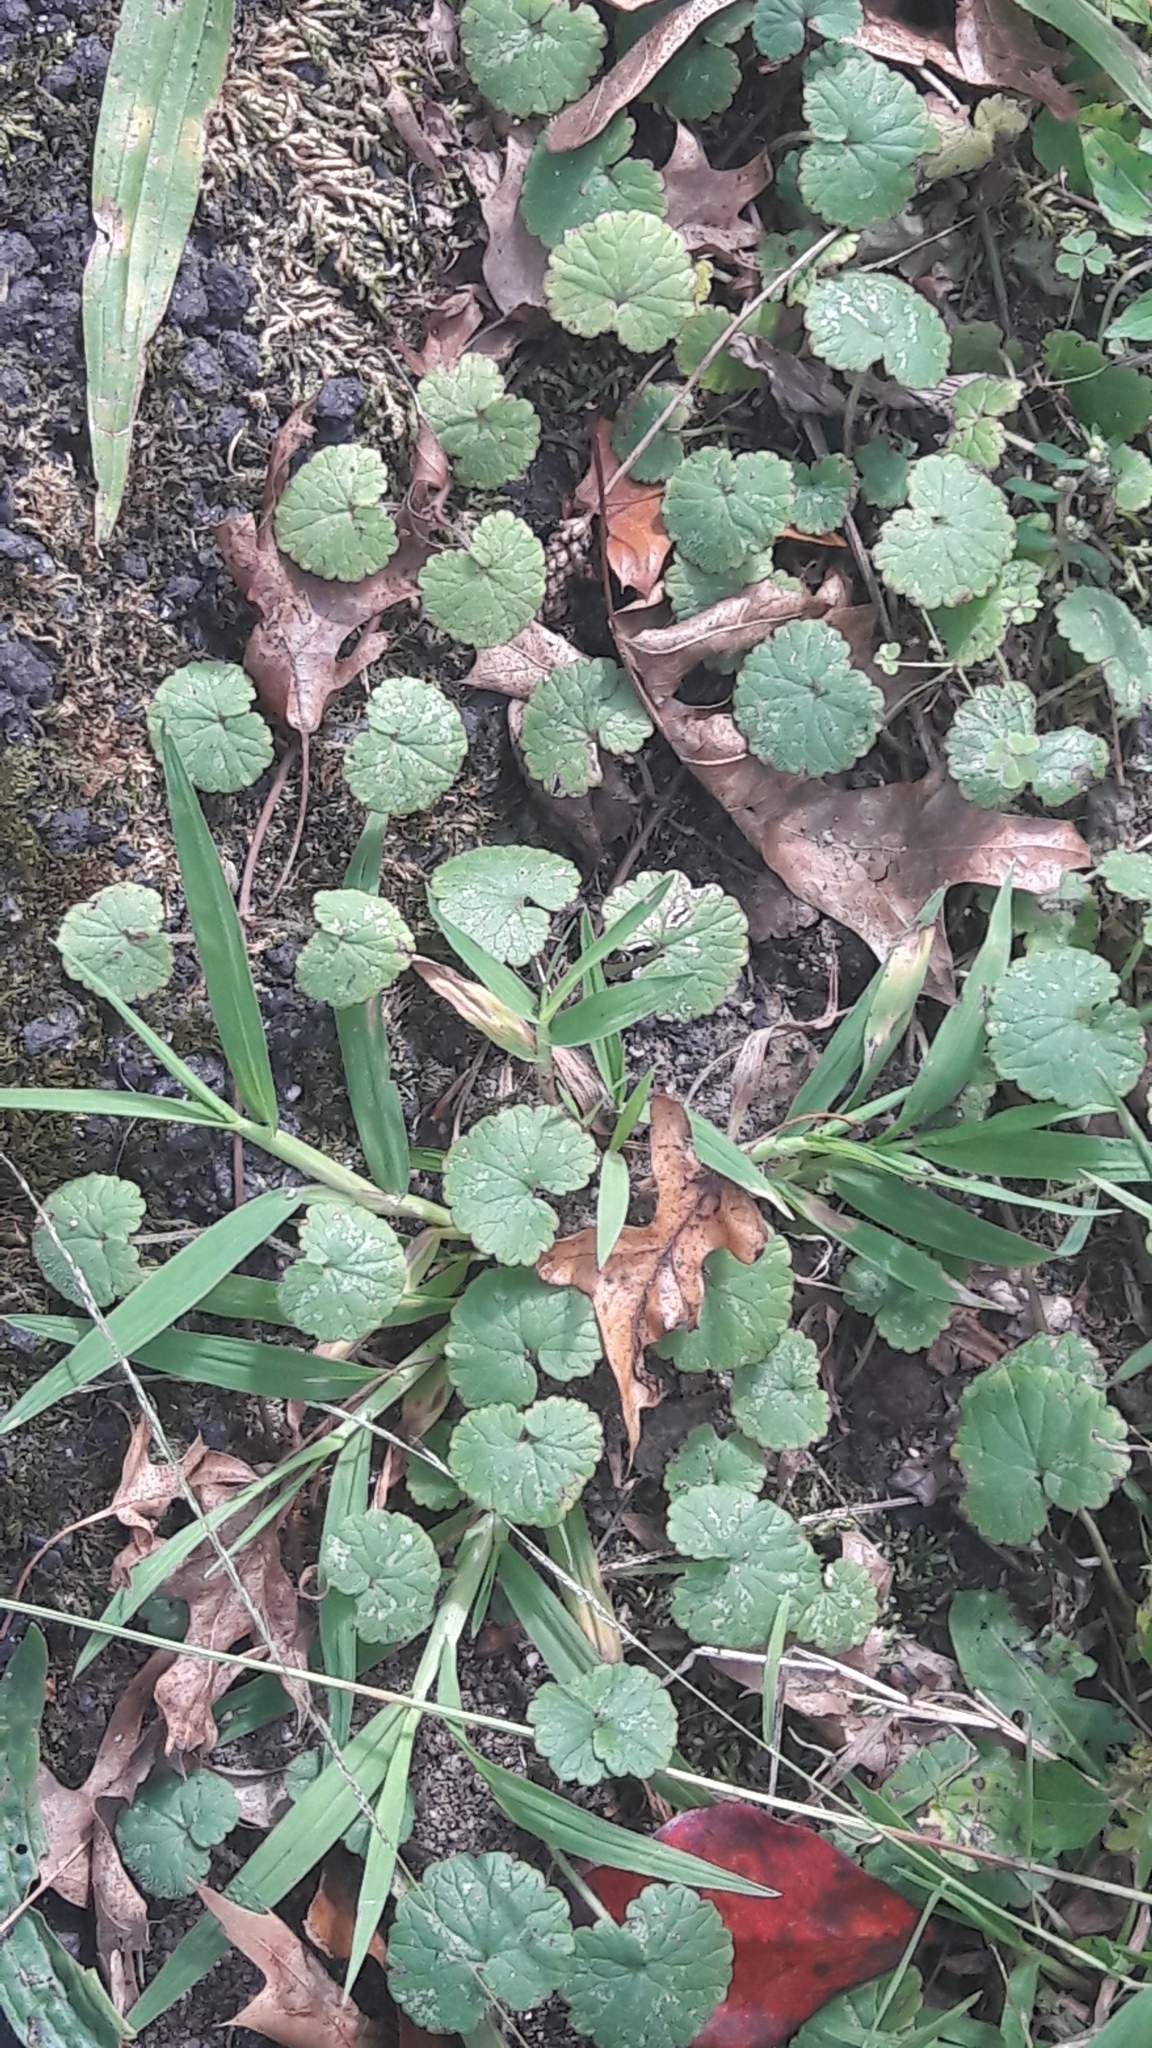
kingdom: Plantae
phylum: Tracheophyta
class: Magnoliopsida
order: Lamiales
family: Lamiaceae
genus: Glechoma
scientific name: Glechoma hederacea
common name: Ground ivy
